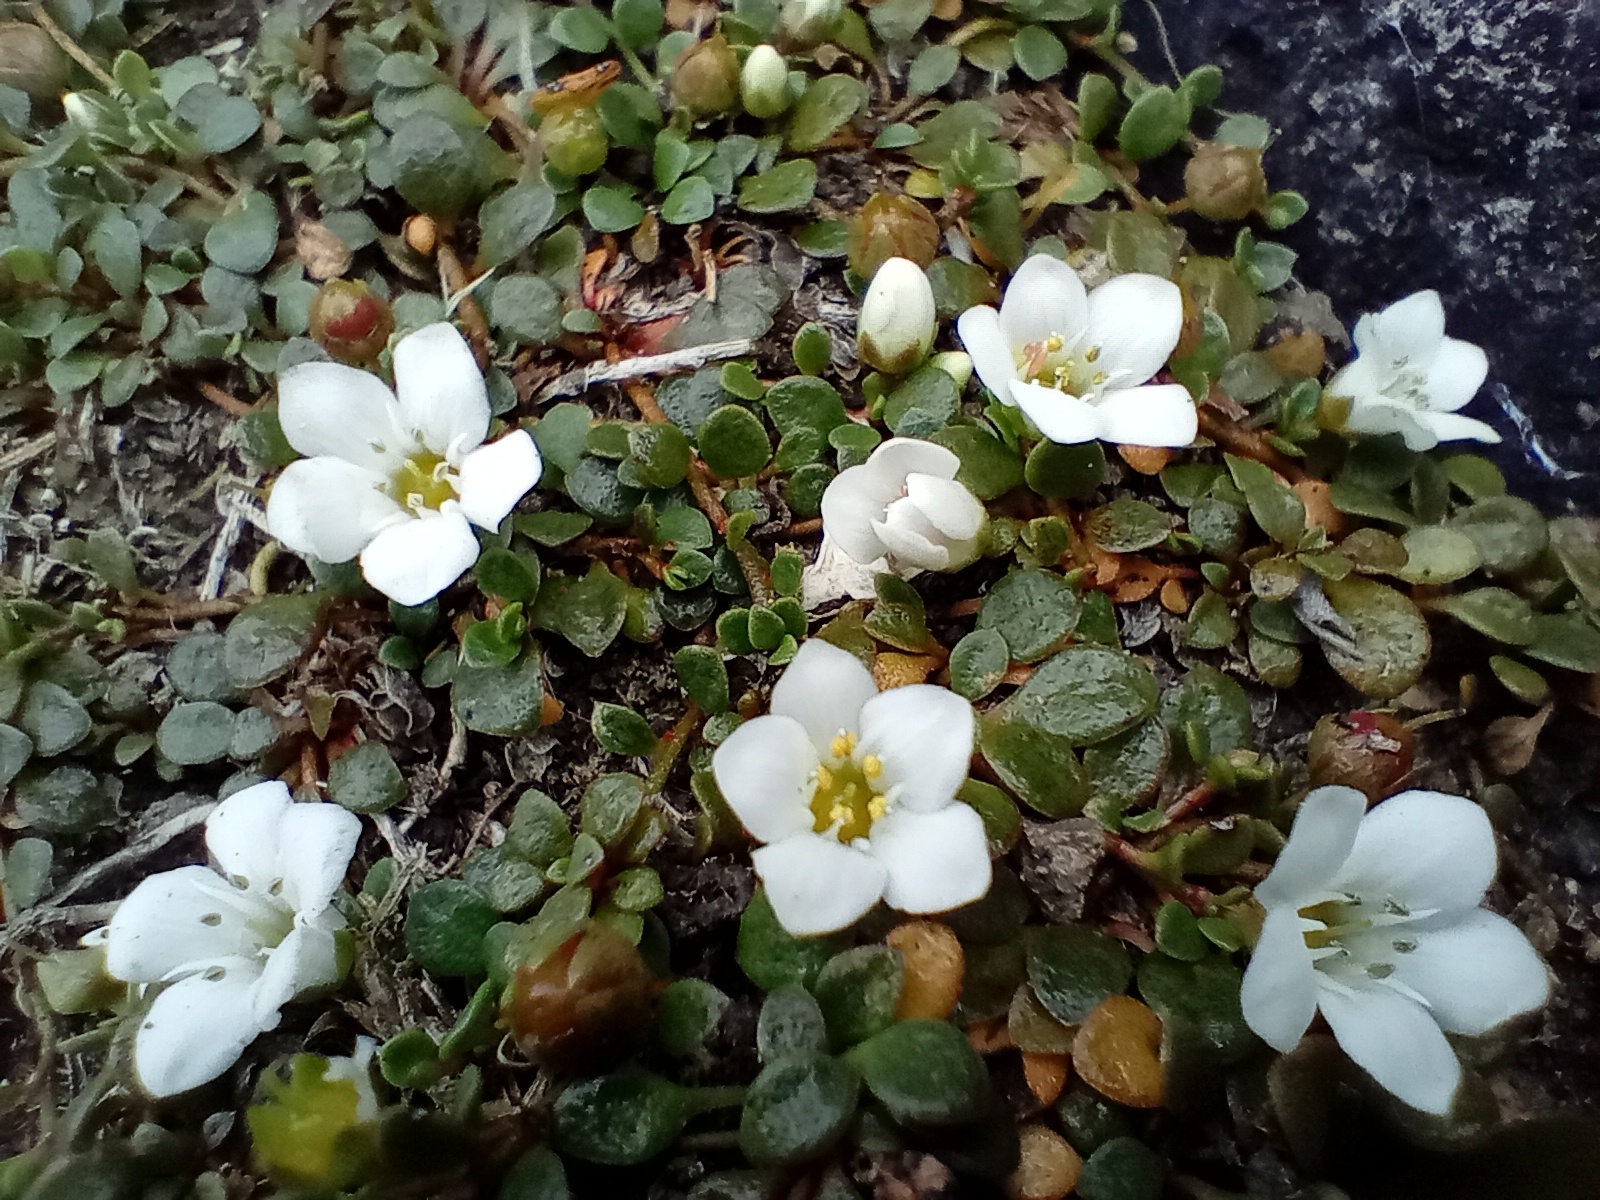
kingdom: Plantae
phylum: Tracheophyta
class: Magnoliopsida
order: Ericales
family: Primulaceae
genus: Samolus
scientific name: Samolus repens
